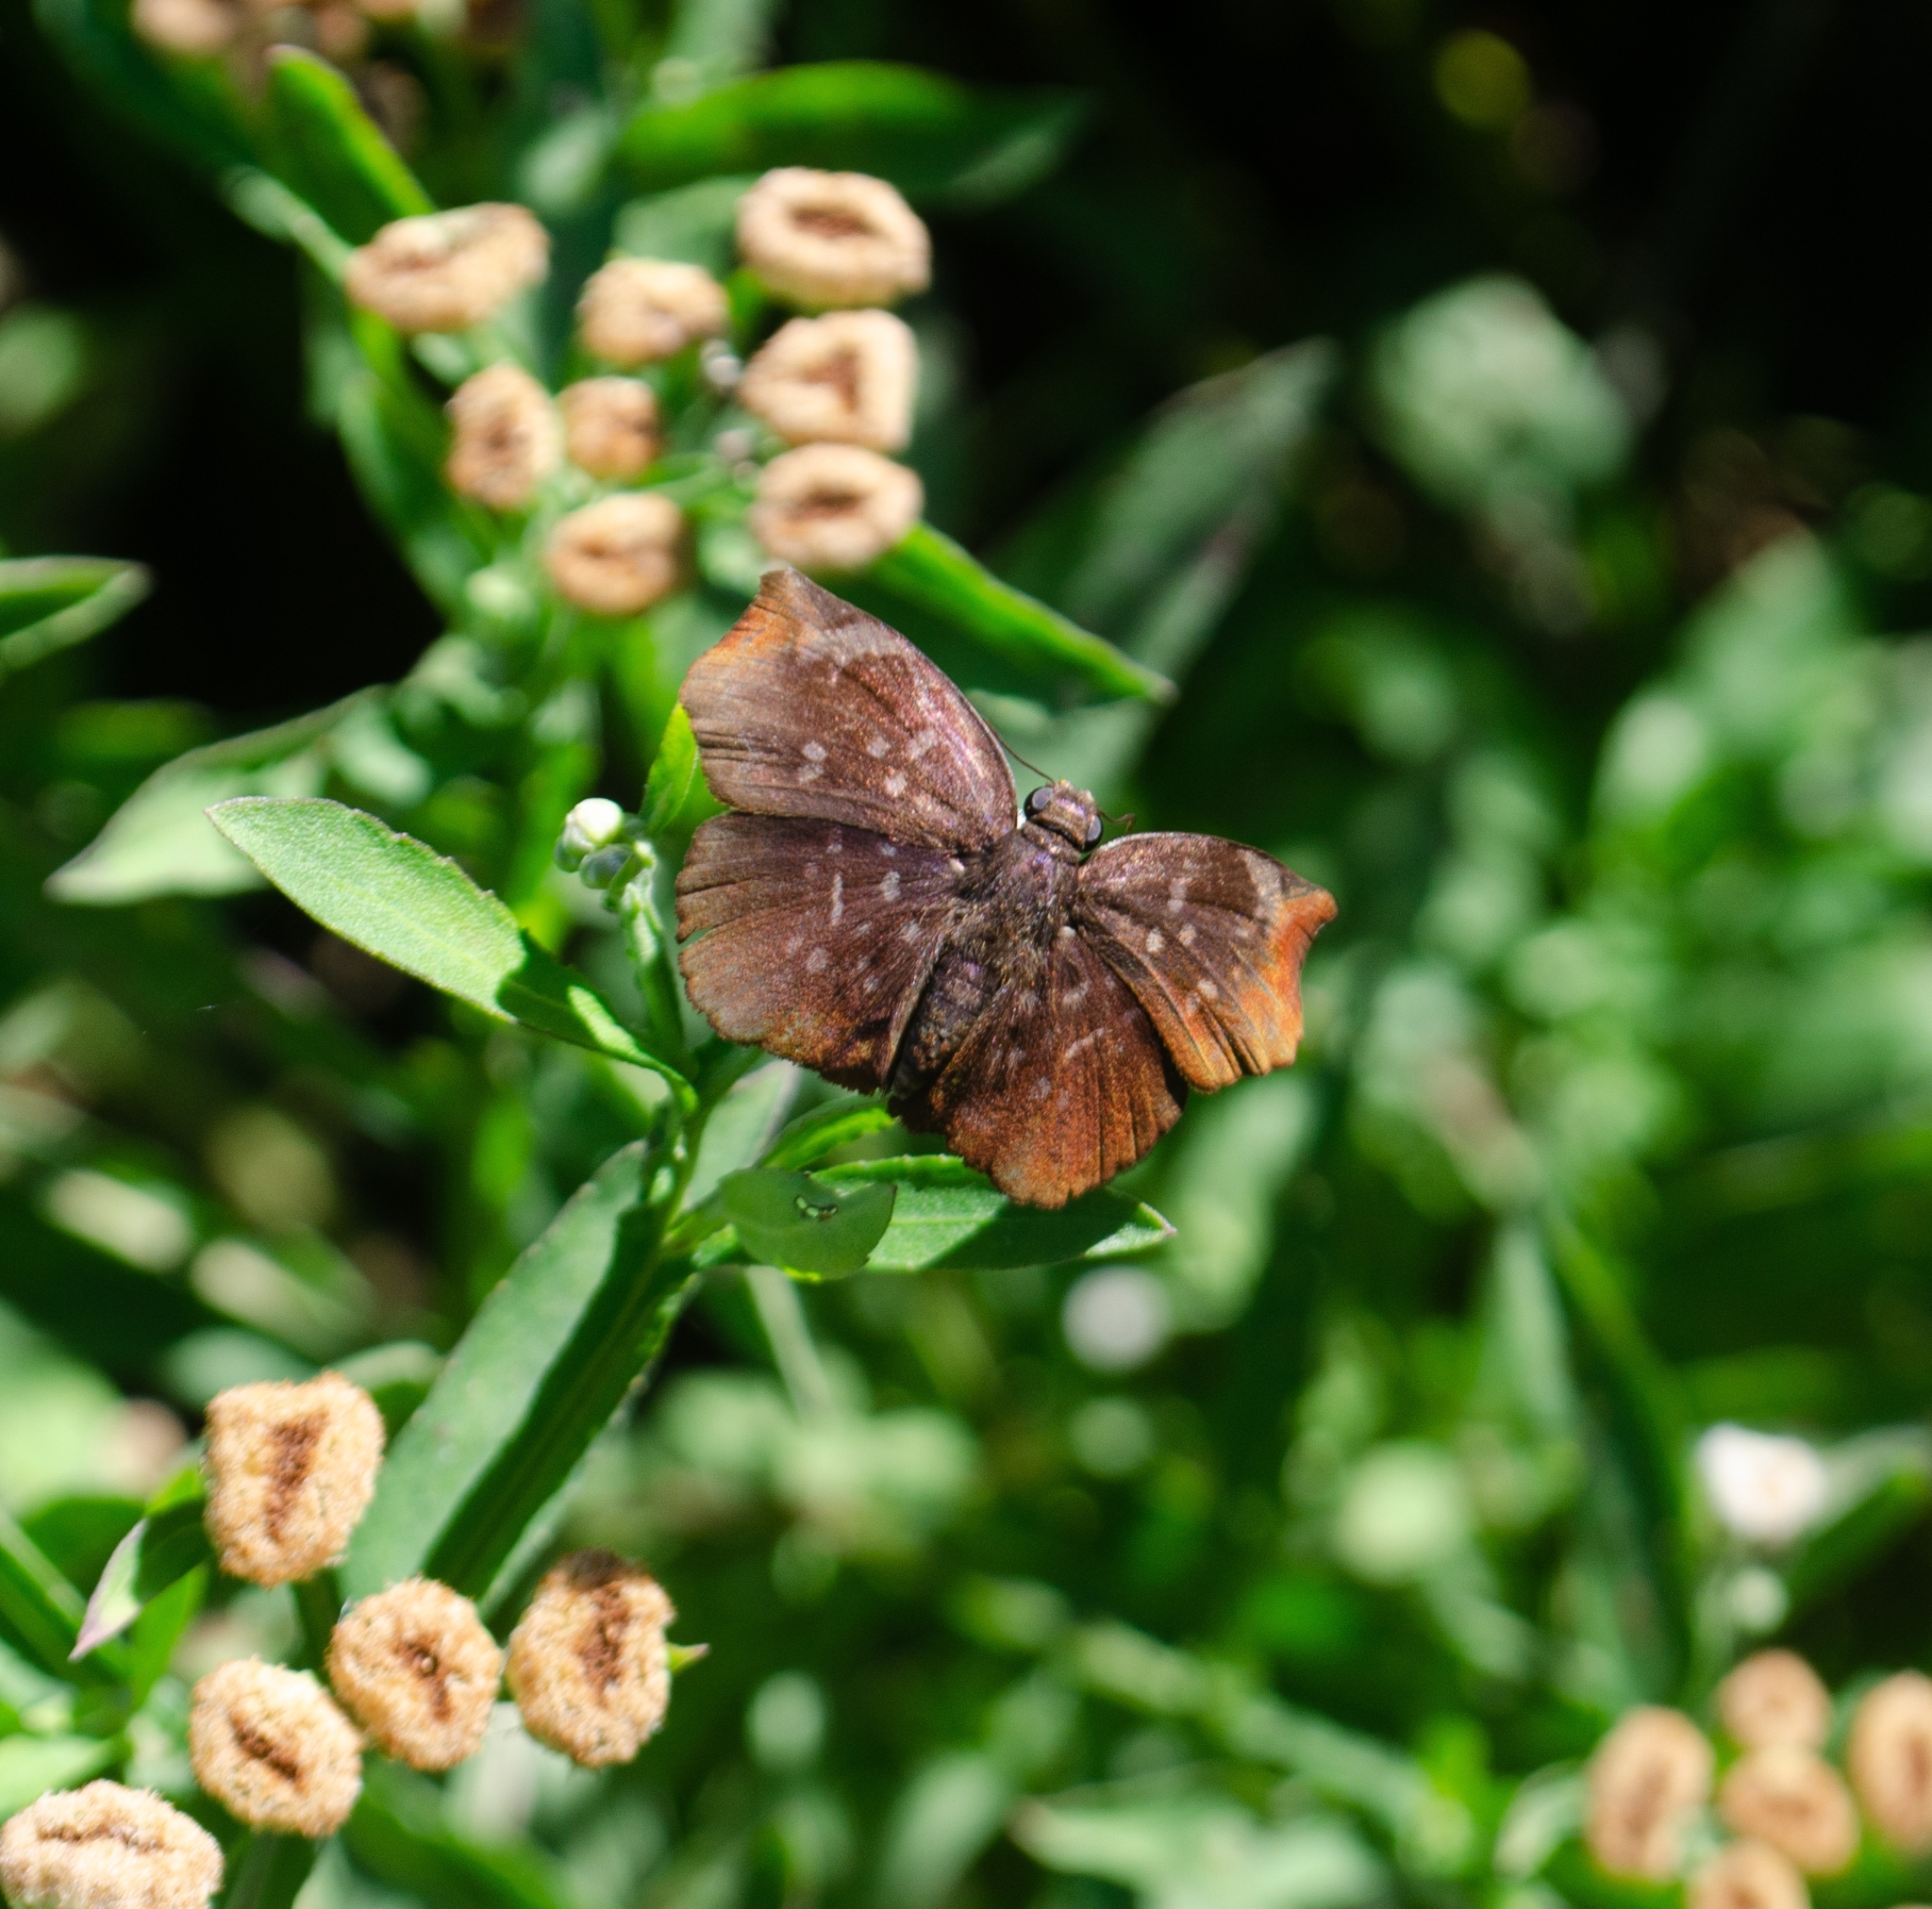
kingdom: Animalia
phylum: Arthropoda
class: Insecta
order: Lepidoptera
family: Hesperiidae
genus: Achlyodes
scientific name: Achlyodes thraso
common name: Sickle-winged skipper
